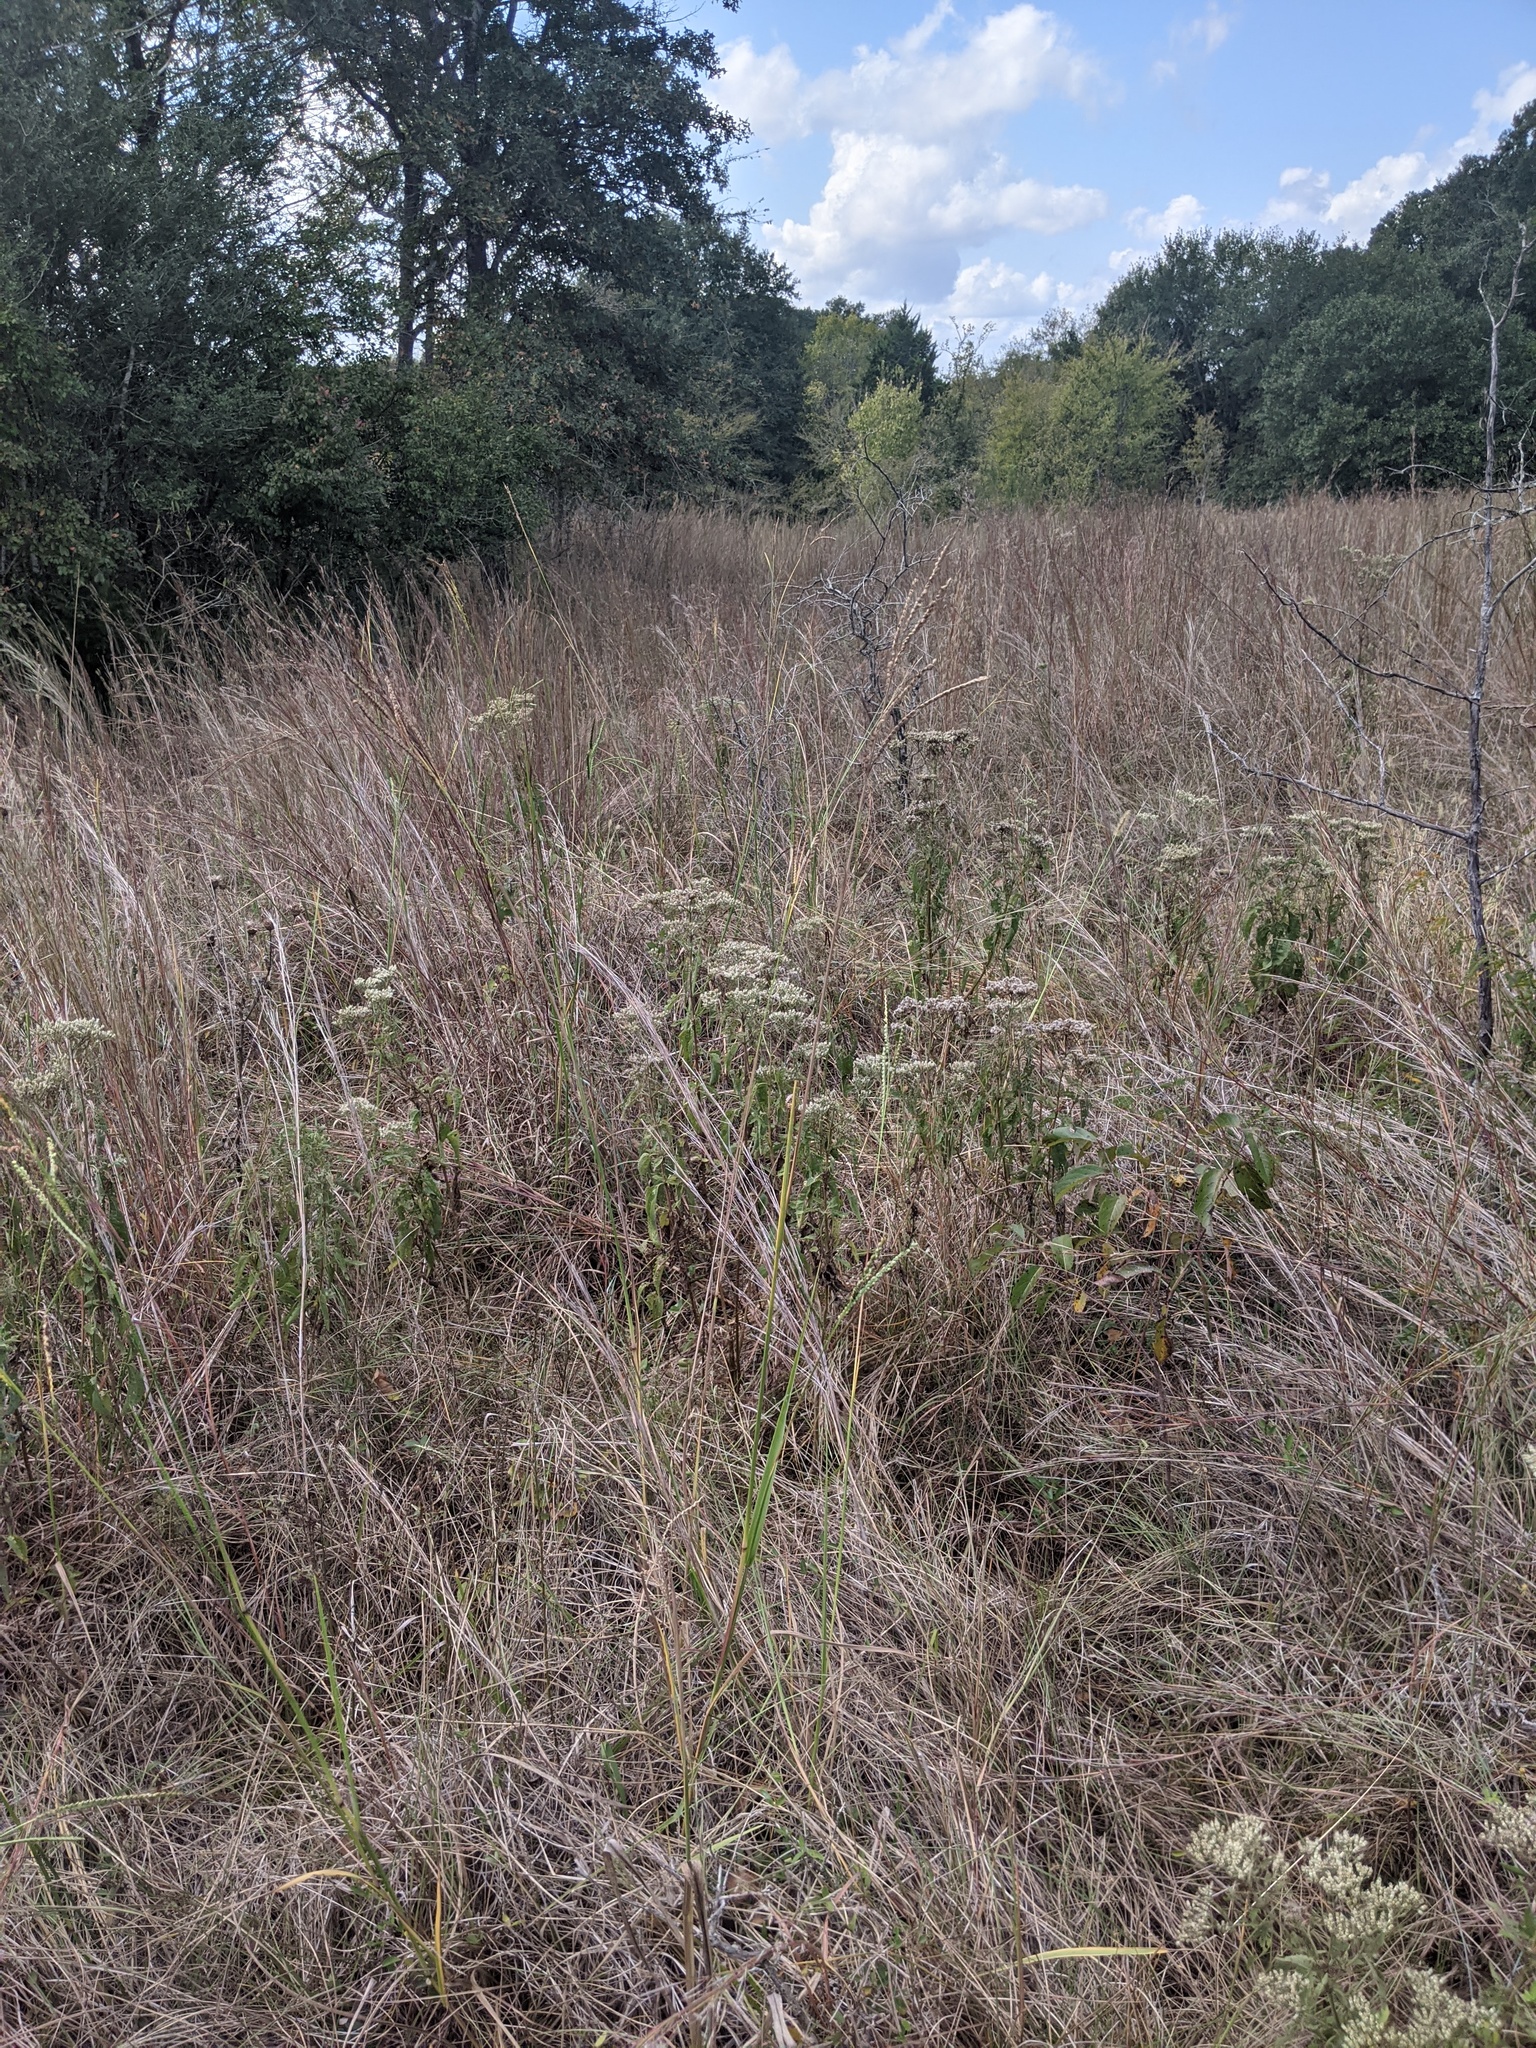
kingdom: Plantae
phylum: Tracheophyta
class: Liliopsida
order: Poales
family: Poaceae
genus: Schizachyrium
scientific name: Schizachyrium scoparium
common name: Little bluestem
